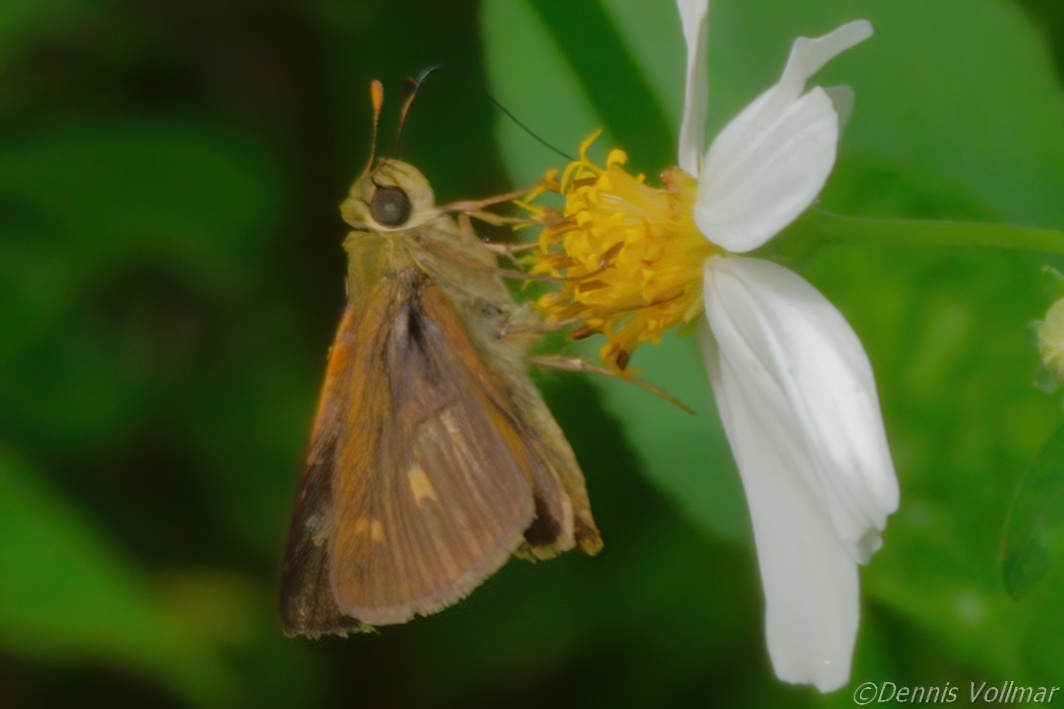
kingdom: Animalia
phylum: Arthropoda
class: Insecta
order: Lepidoptera
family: Hesperiidae
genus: Polites
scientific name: Polites otho
